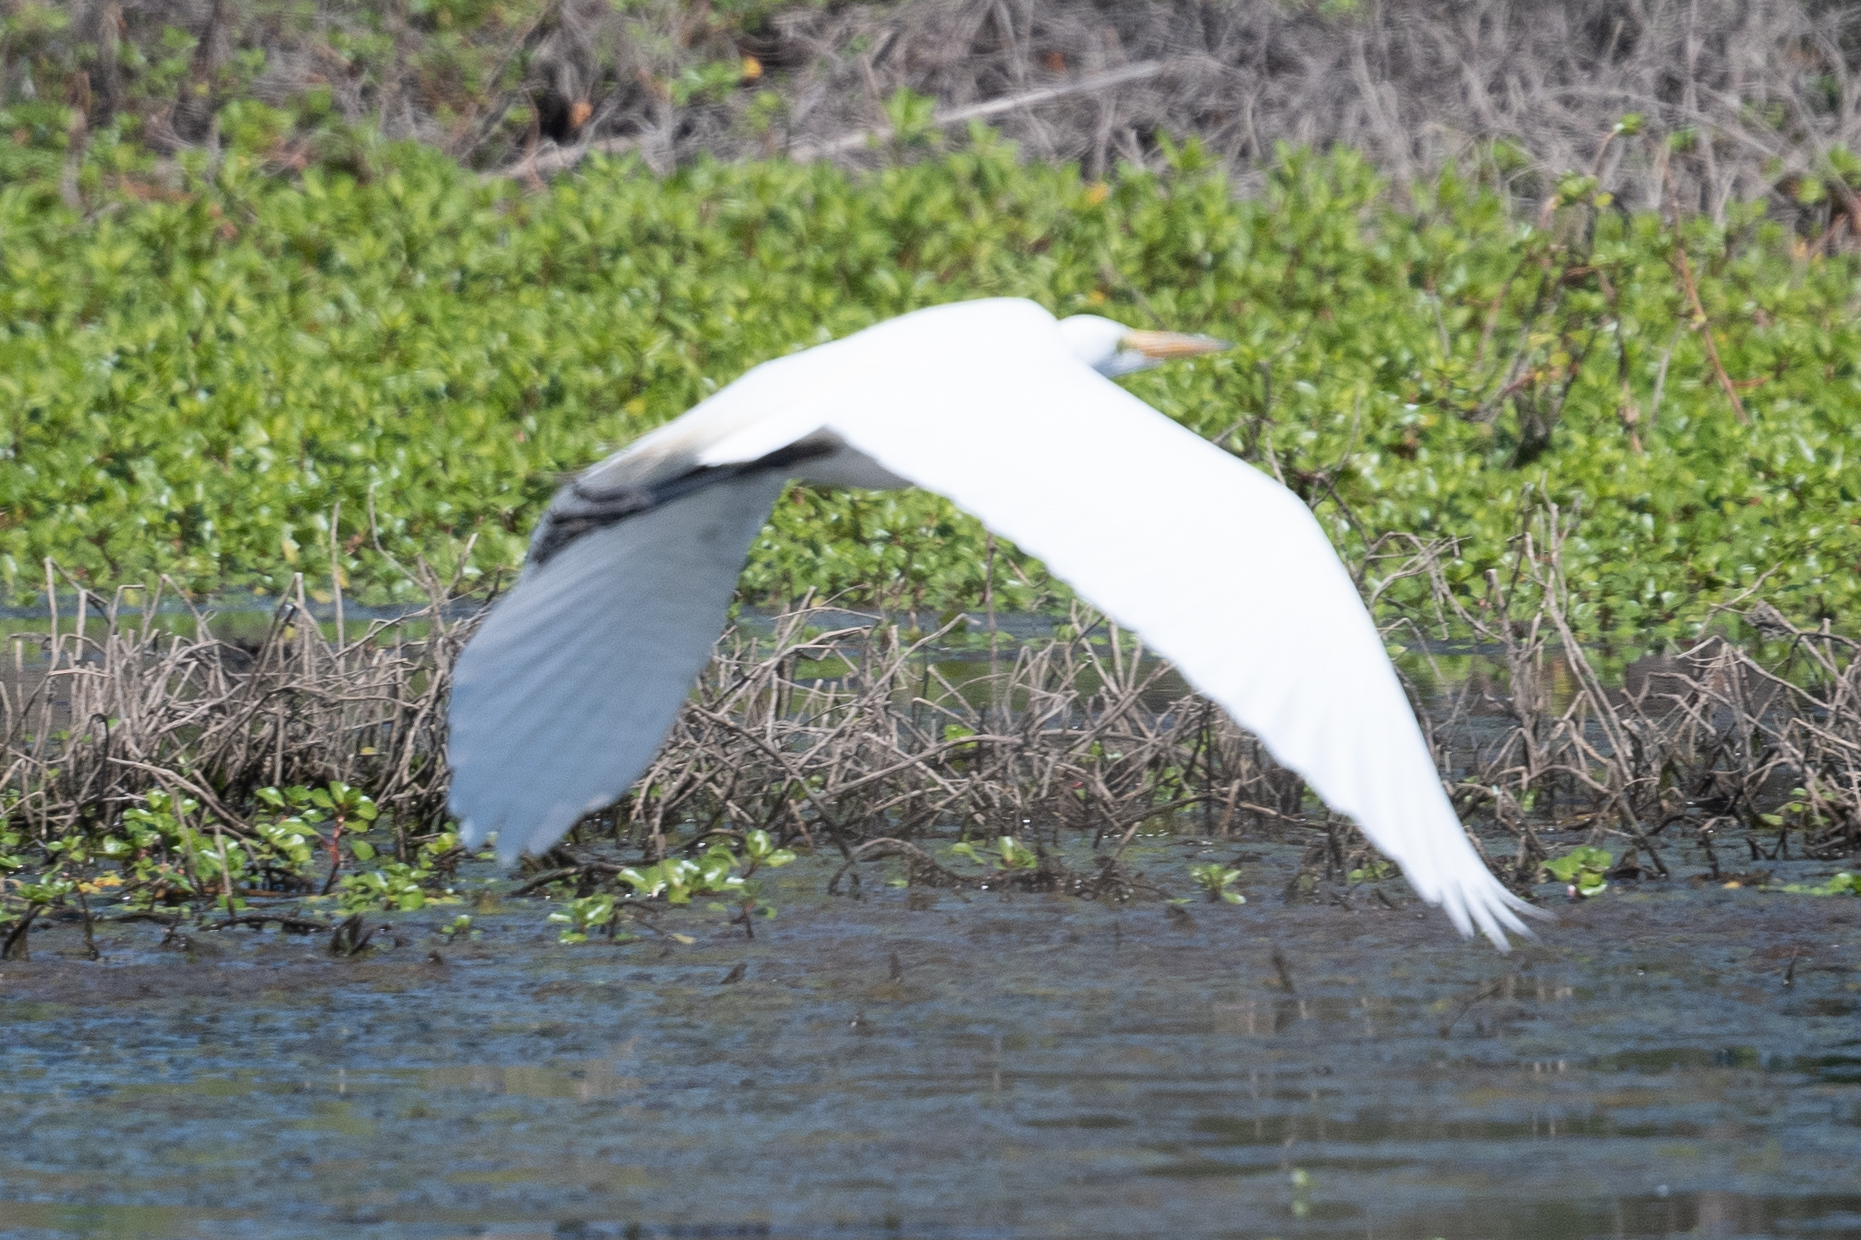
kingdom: Animalia
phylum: Chordata
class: Aves
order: Pelecaniformes
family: Ardeidae
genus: Ardea
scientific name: Ardea alba
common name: Great egret
